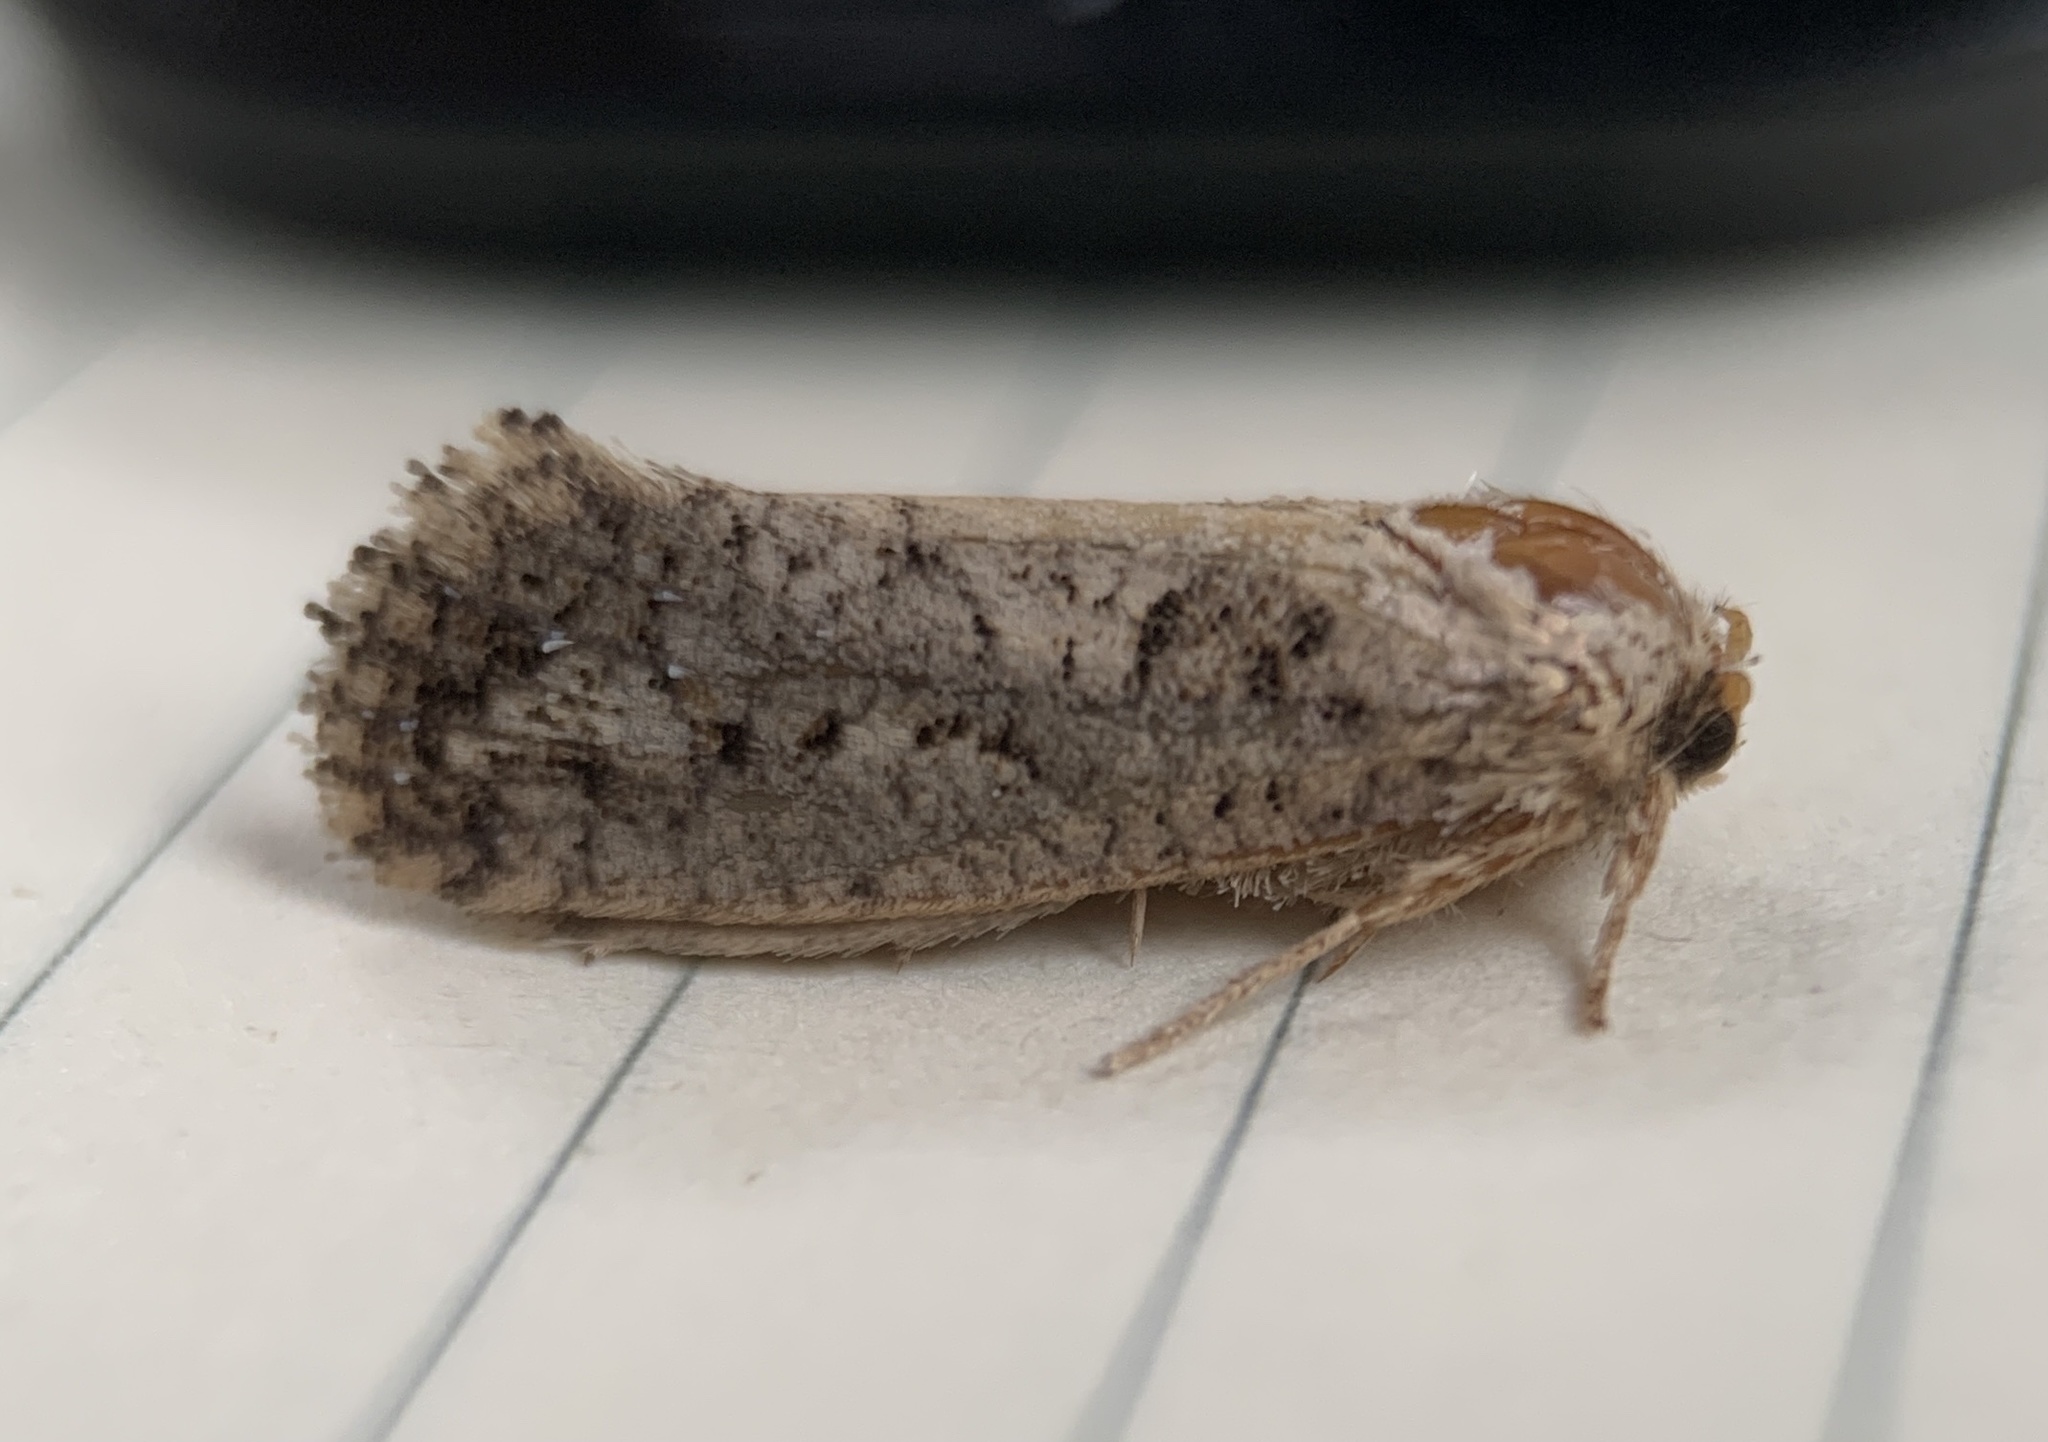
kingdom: Animalia
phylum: Arthropoda
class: Insecta
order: Lepidoptera
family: Tineidae
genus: Acrolophus
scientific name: Acrolophus arcanella
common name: Arcane grass tubeworm moth
